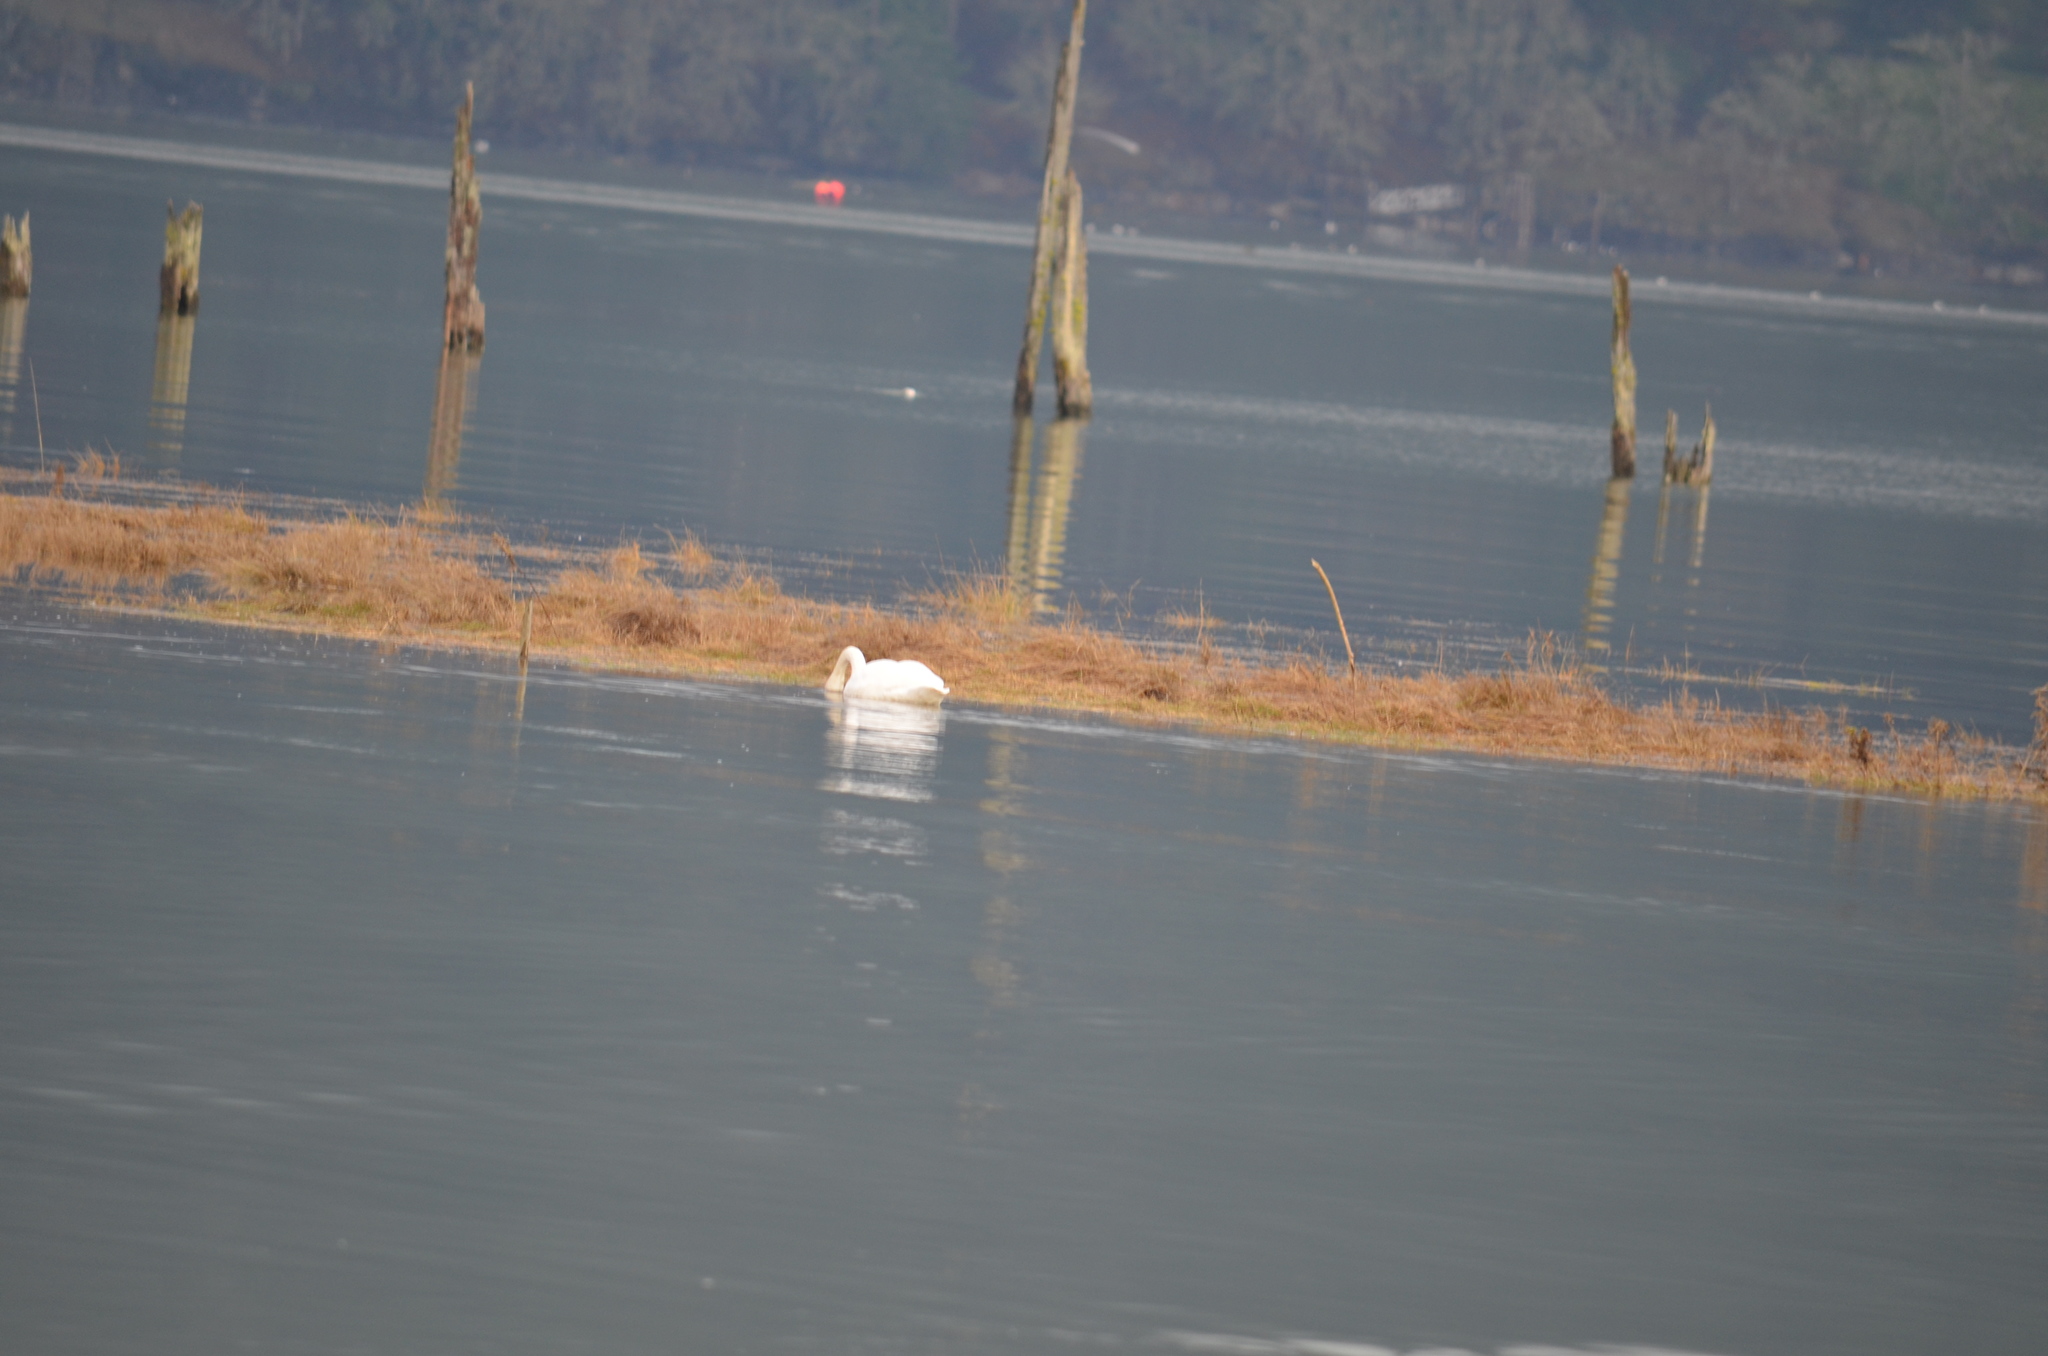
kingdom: Animalia
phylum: Chordata
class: Aves
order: Anseriformes
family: Anatidae
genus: Cygnus
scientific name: Cygnus buccinator
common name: Trumpeter swan
